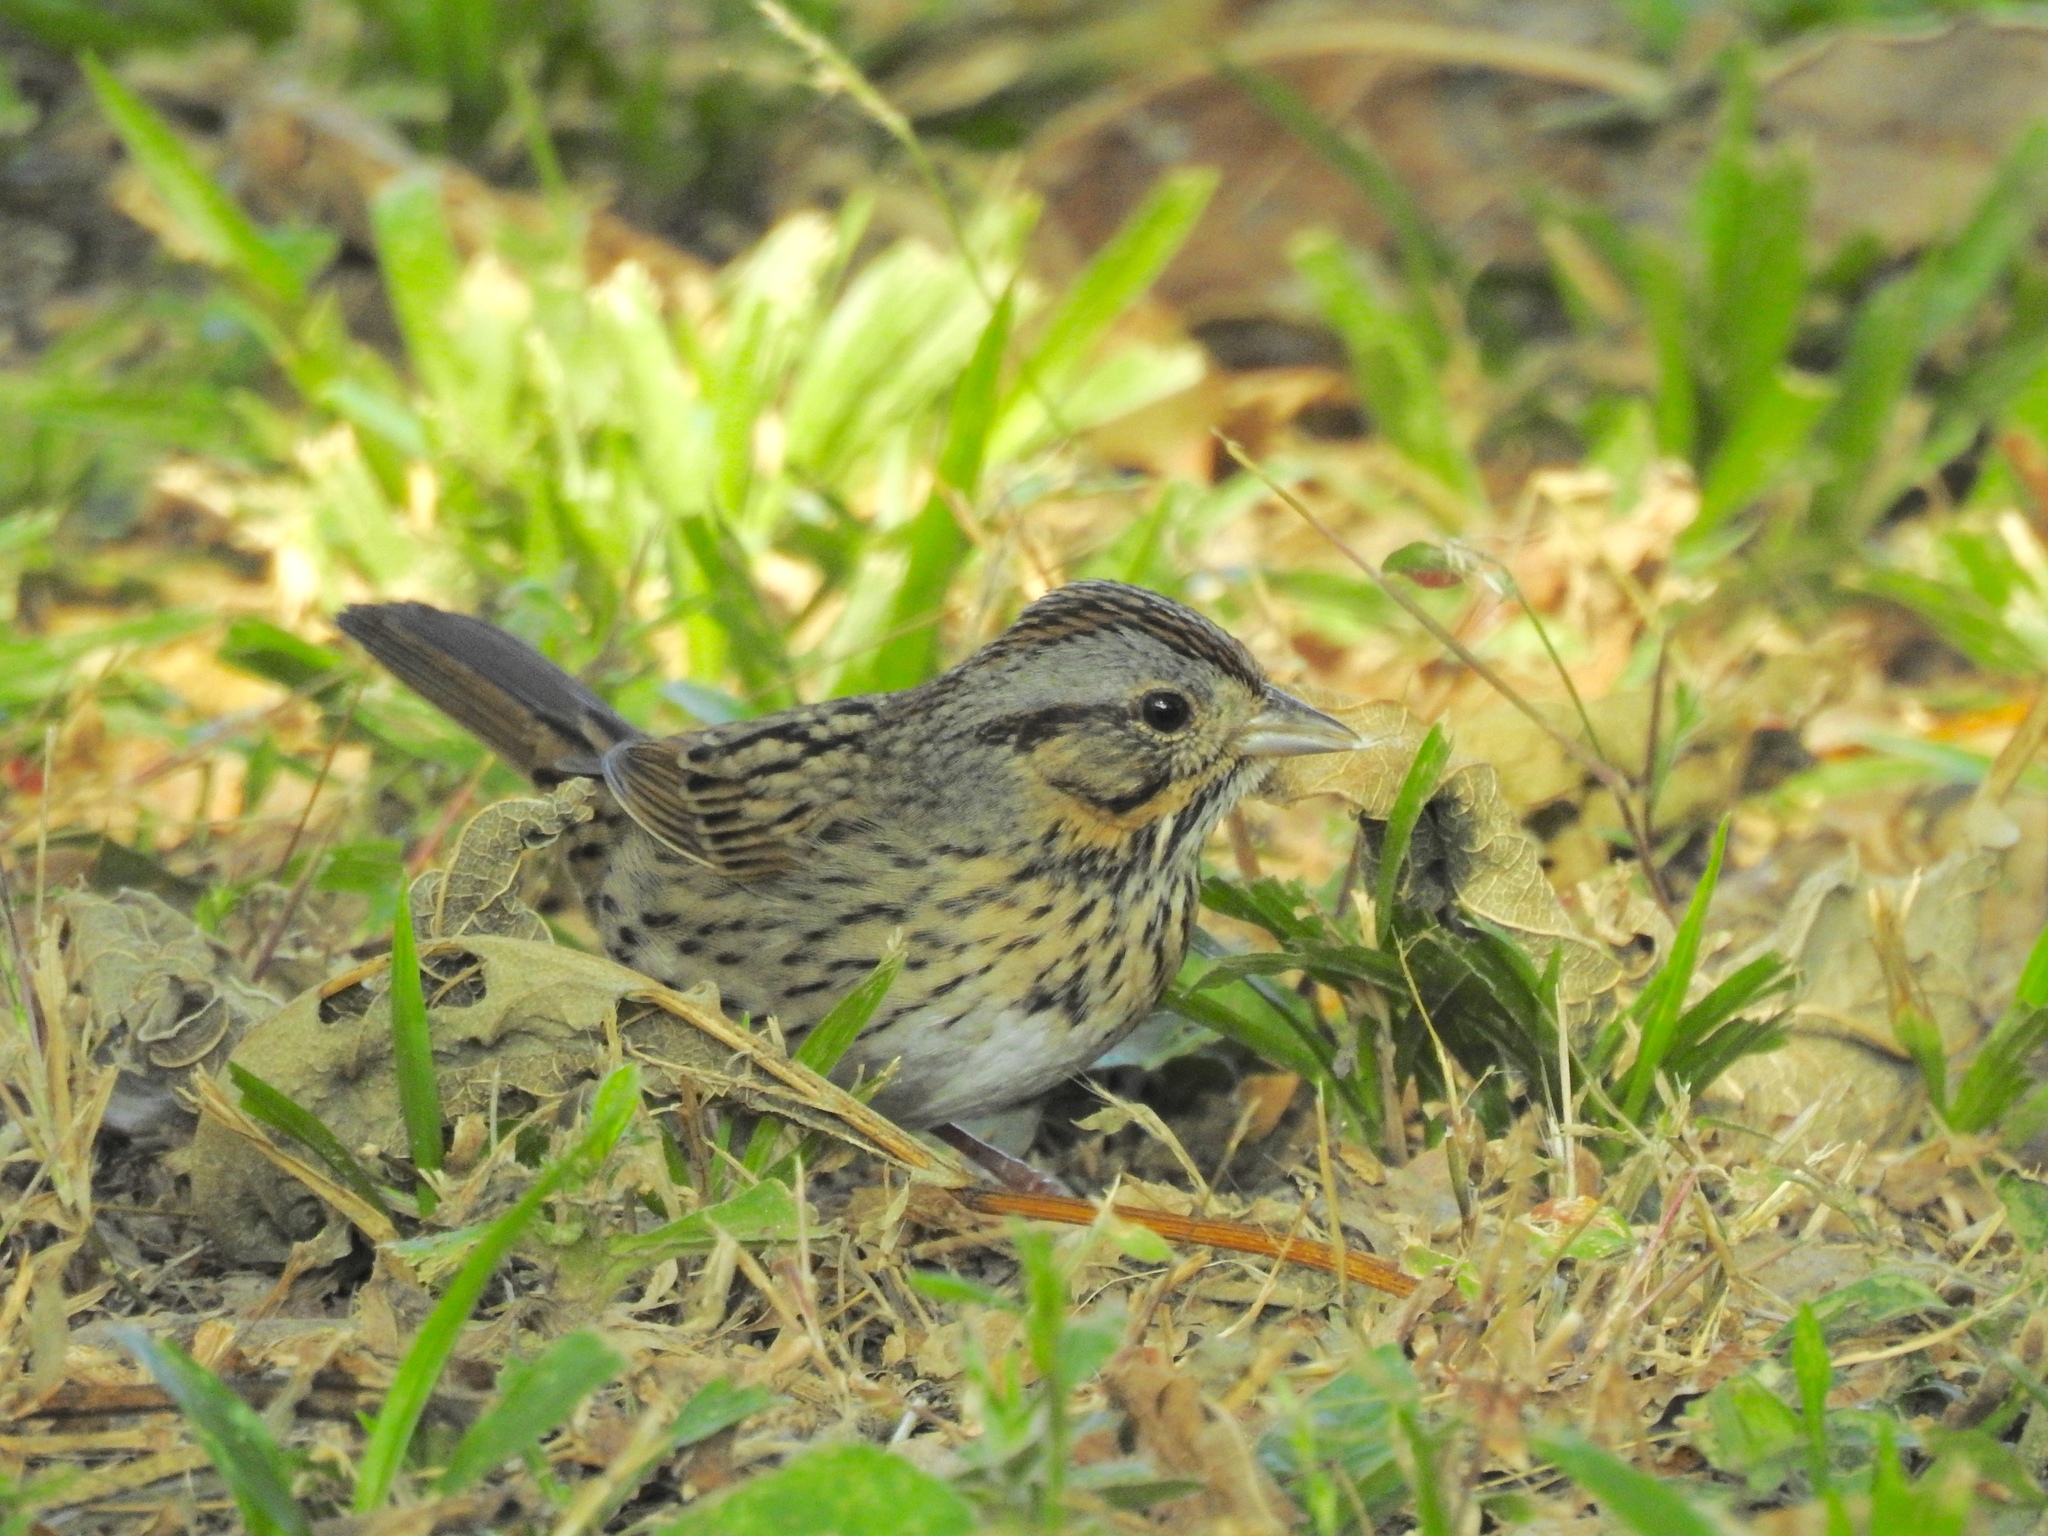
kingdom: Animalia
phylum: Chordata
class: Aves
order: Passeriformes
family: Passerellidae
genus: Melospiza
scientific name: Melospiza lincolnii
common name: Lincoln's sparrow
